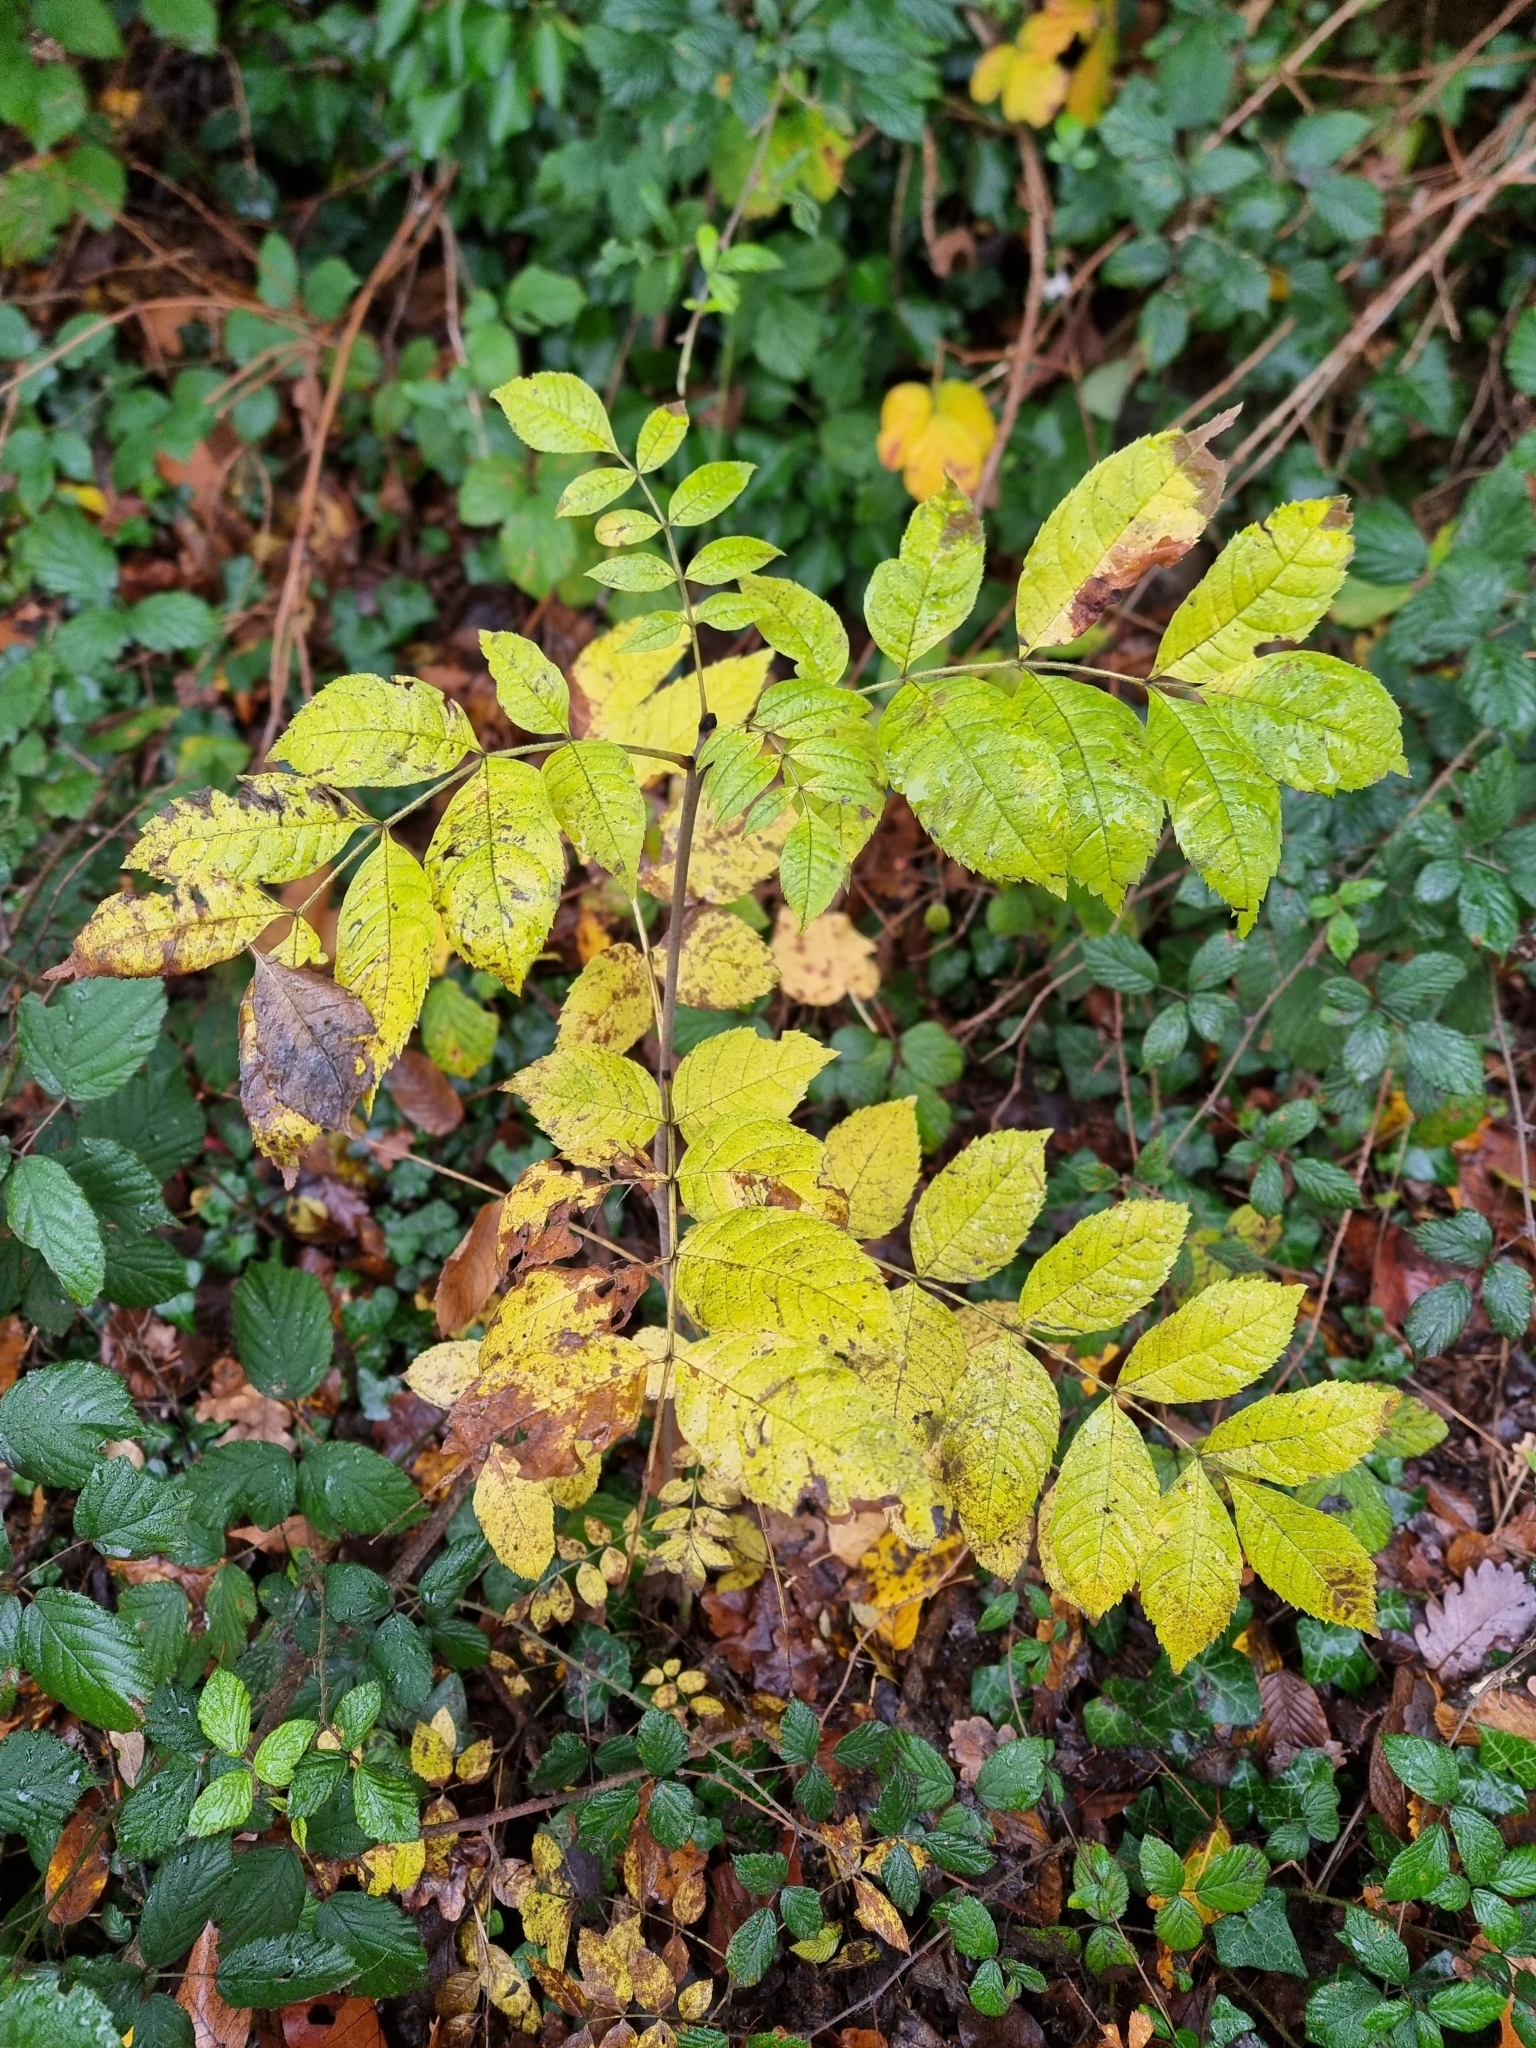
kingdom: Plantae
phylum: Tracheophyta
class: Magnoliopsida
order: Lamiales
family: Oleaceae
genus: Fraxinus
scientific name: Fraxinus excelsior
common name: European ash
